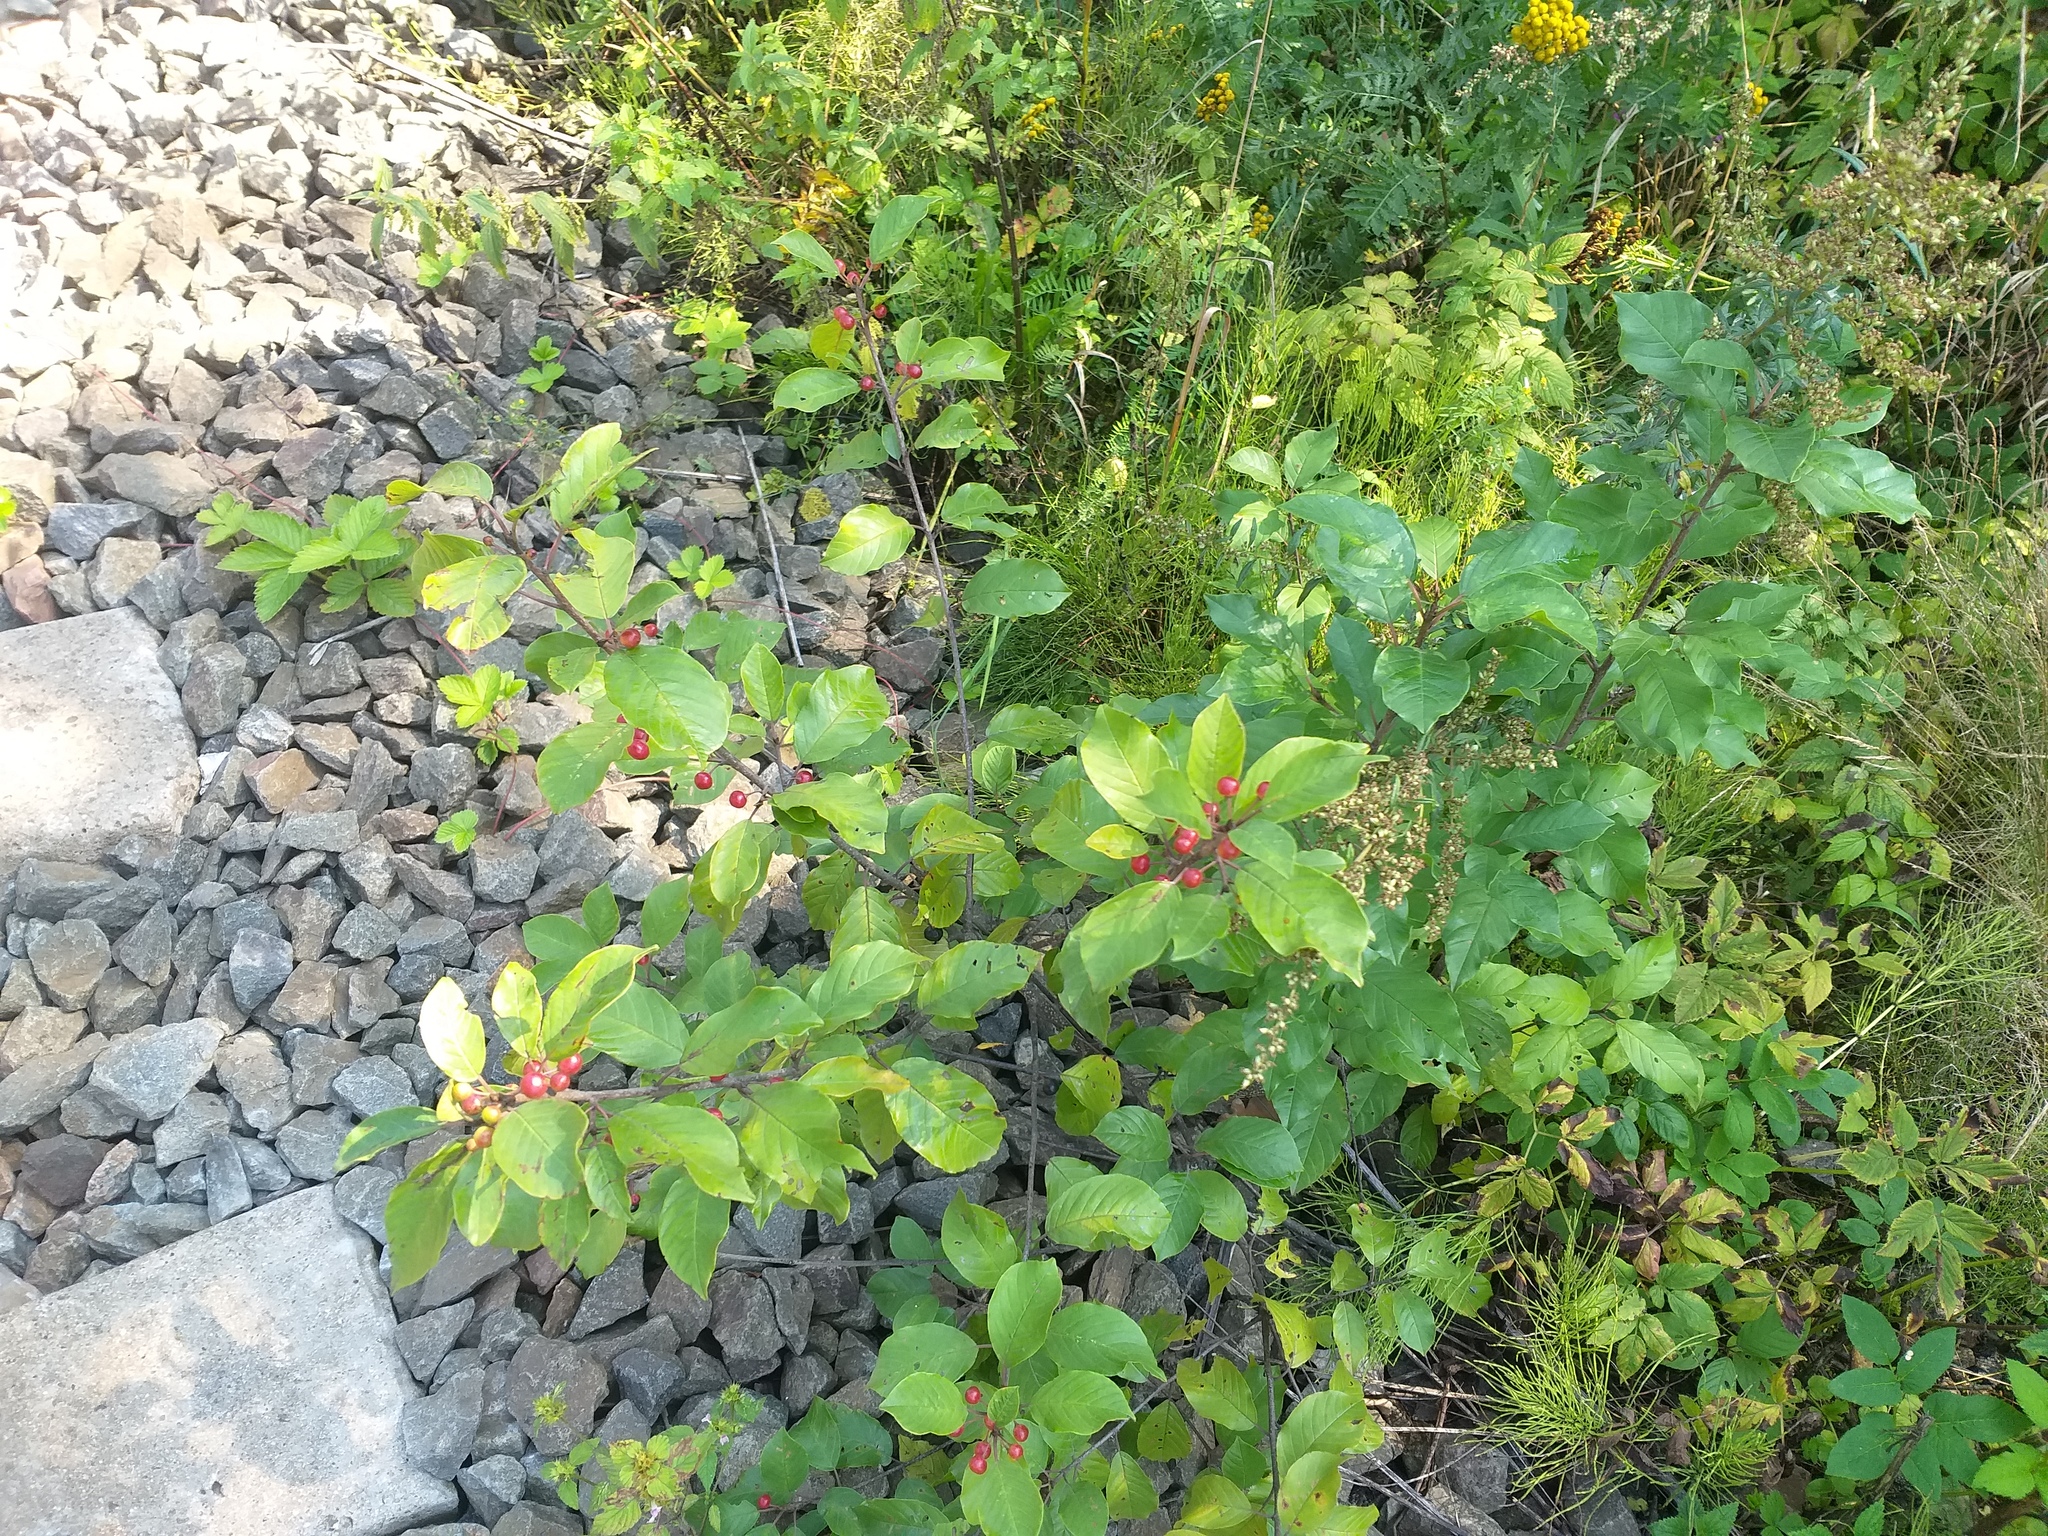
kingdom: Plantae
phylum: Tracheophyta
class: Magnoliopsida
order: Rosales
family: Rhamnaceae
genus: Frangula
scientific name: Frangula alnus
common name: Alder buckthorn
